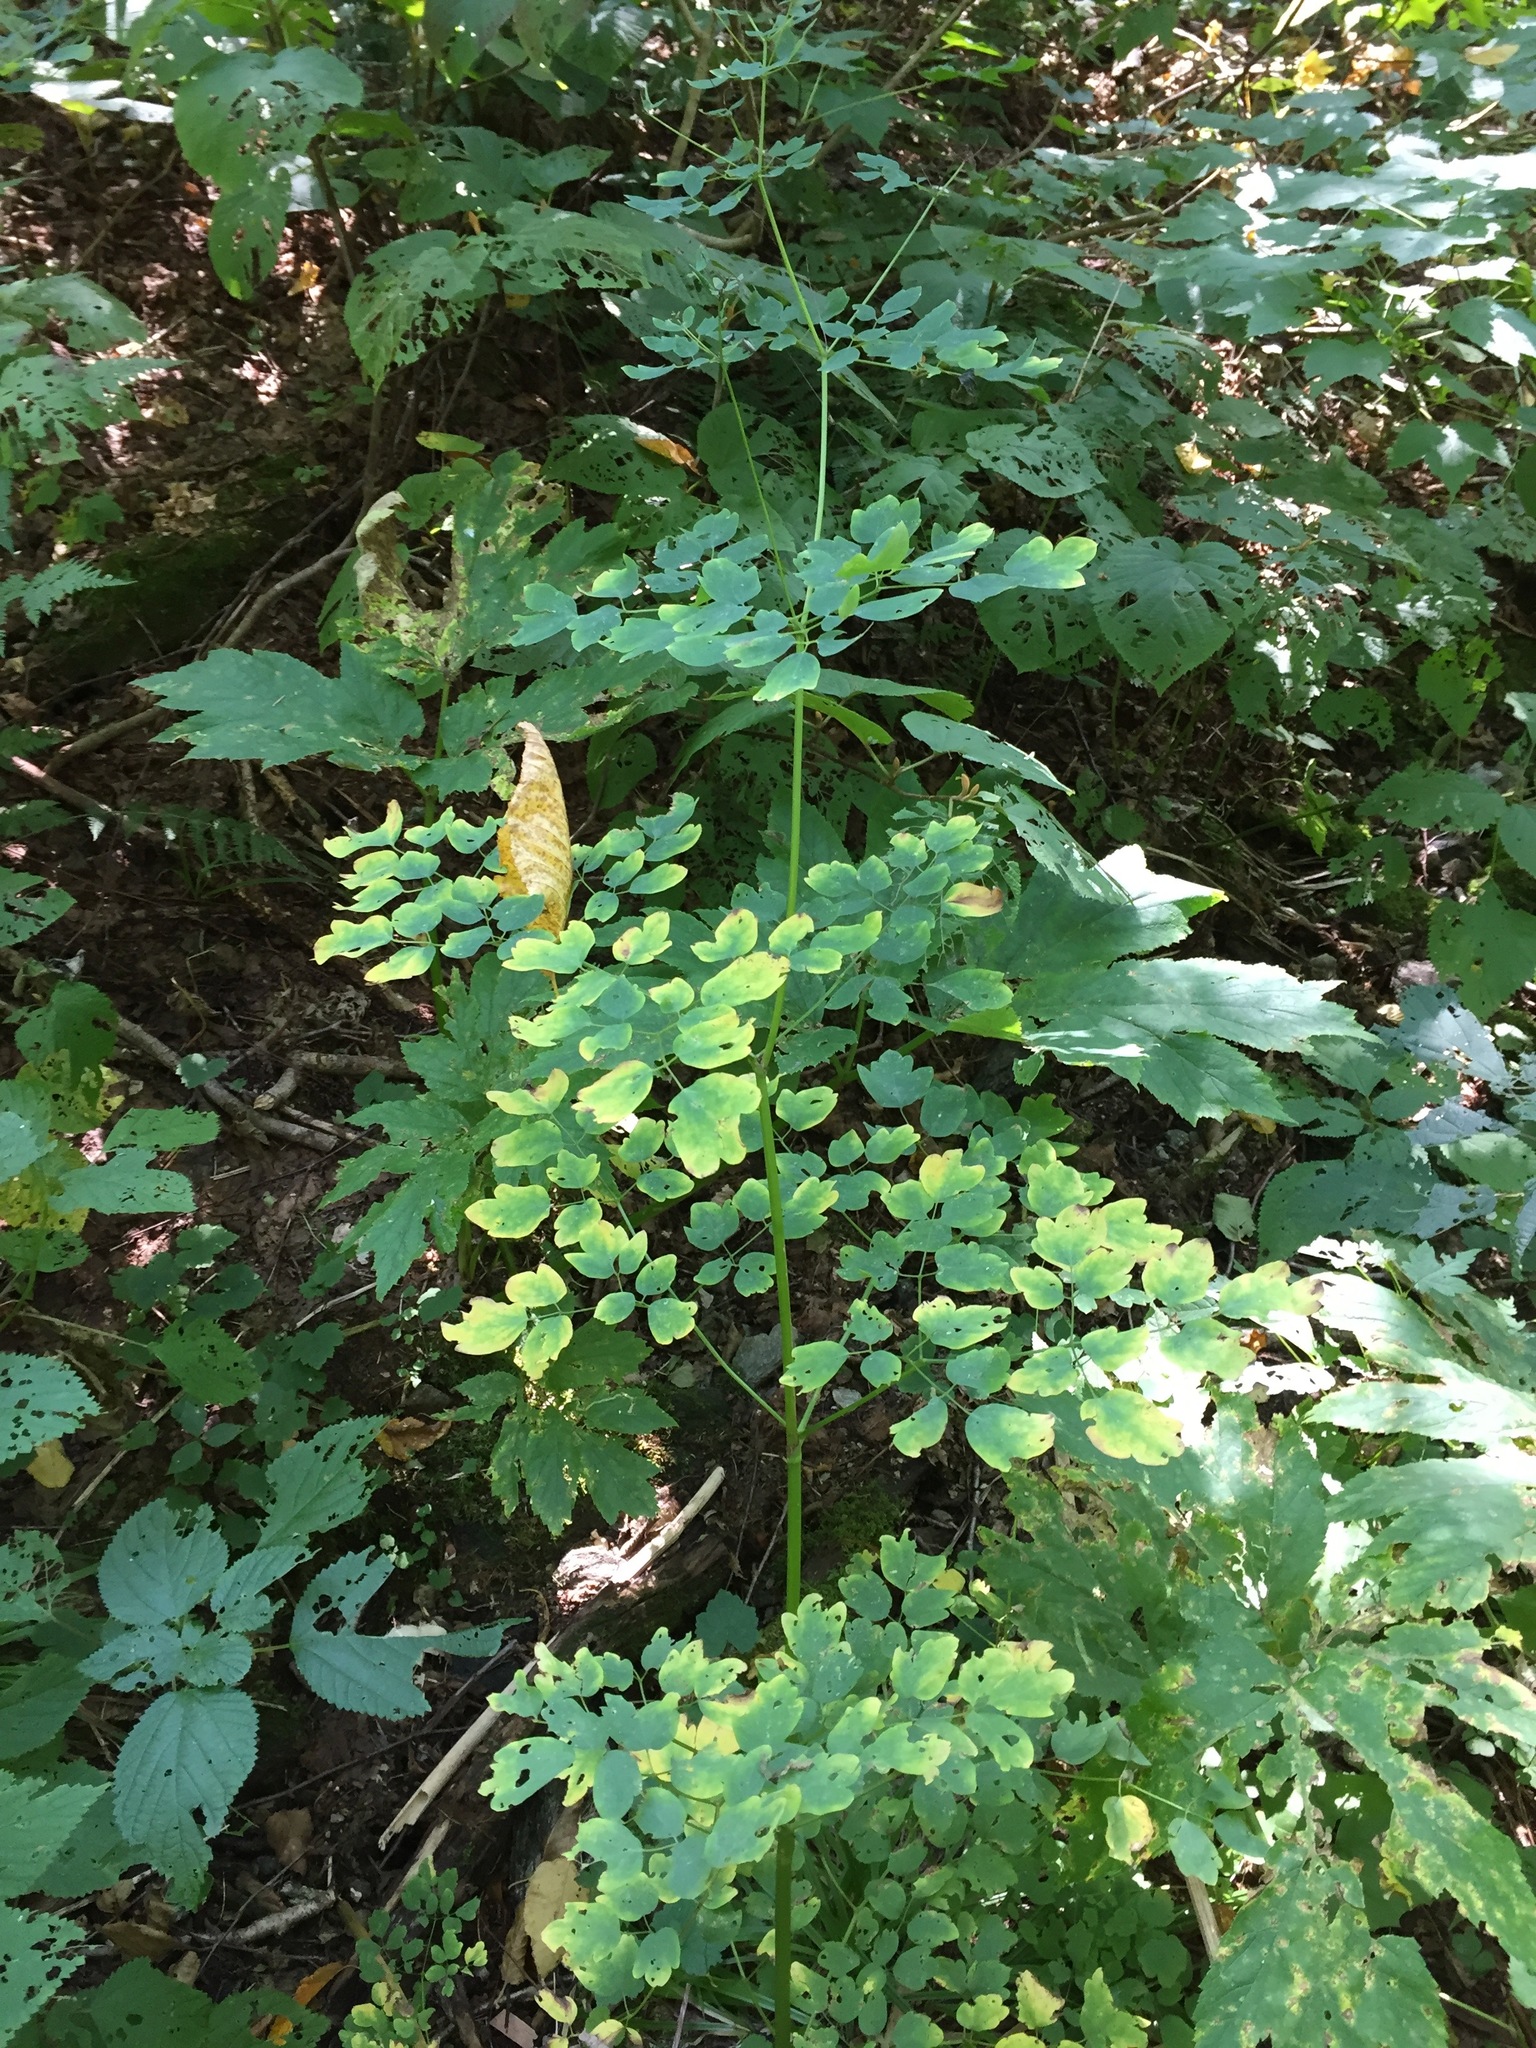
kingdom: Plantae
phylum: Tracheophyta
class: Magnoliopsida
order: Ranunculales
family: Ranunculaceae
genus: Thalictrum
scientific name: Thalictrum pubescens
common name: King-of-the-meadow
